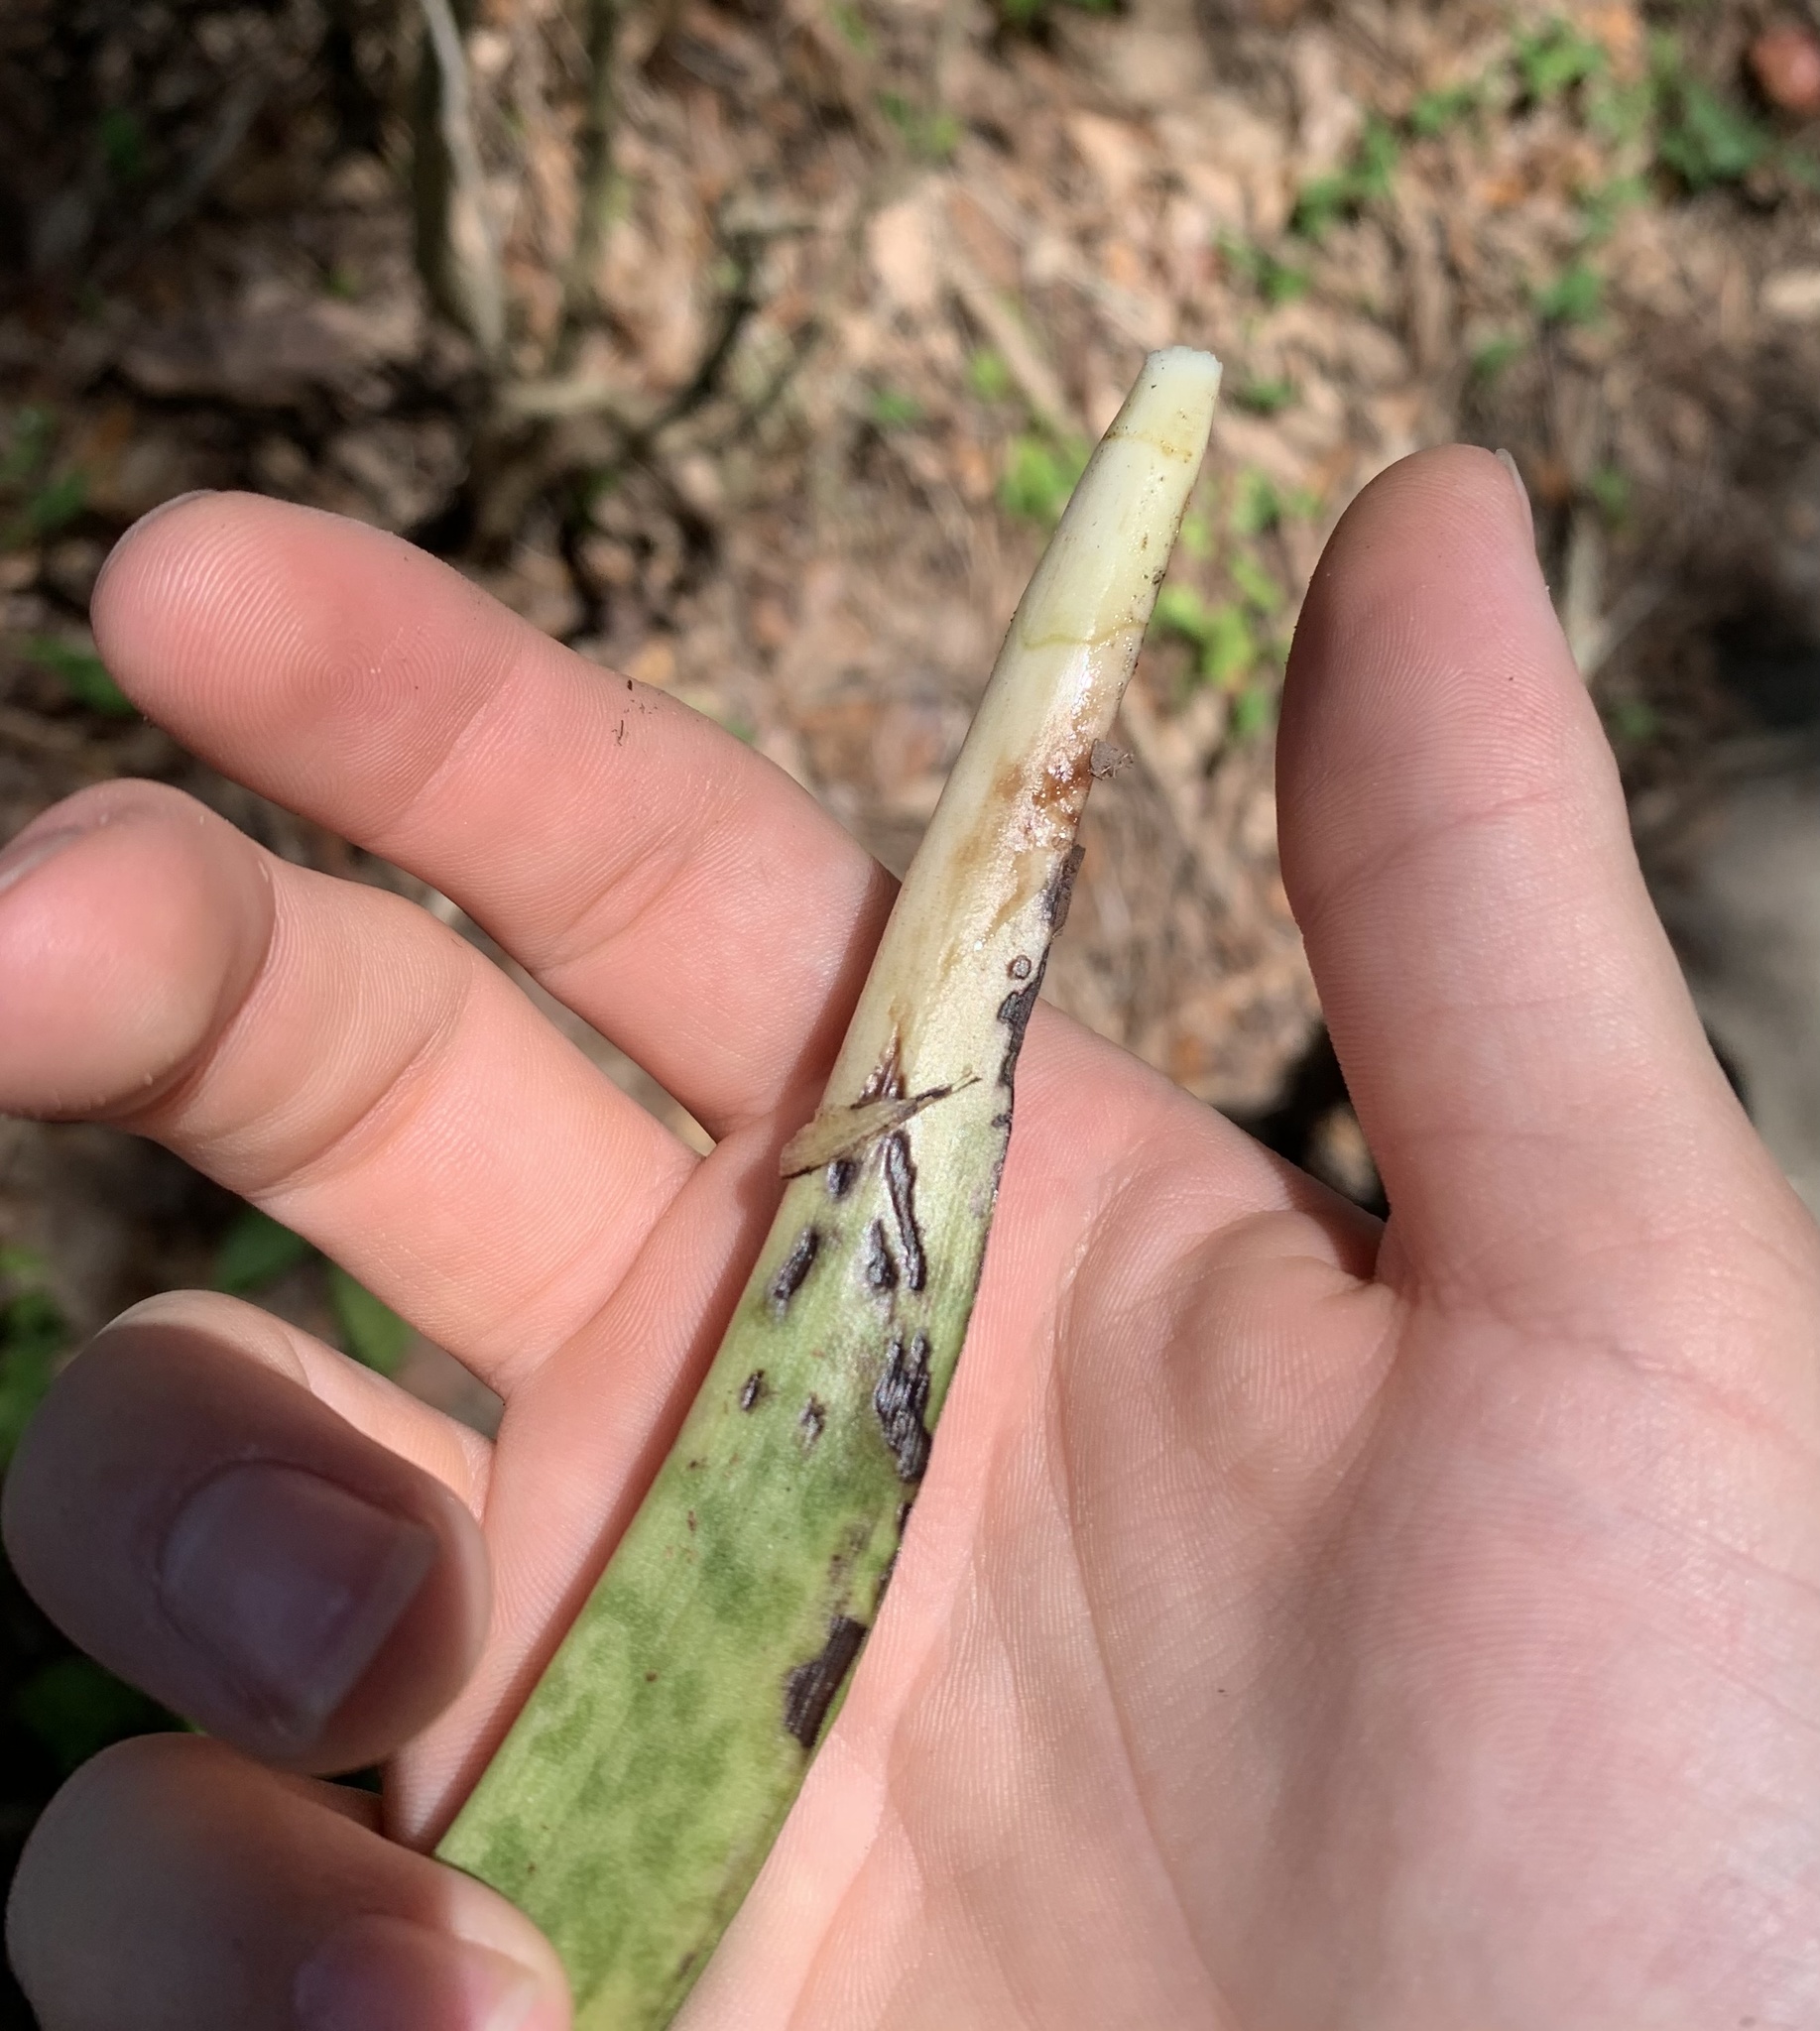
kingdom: Plantae
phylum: Tracheophyta
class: Liliopsida
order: Asparagales
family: Orchidaceae
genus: Eulophia
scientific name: Eulophia maculata
